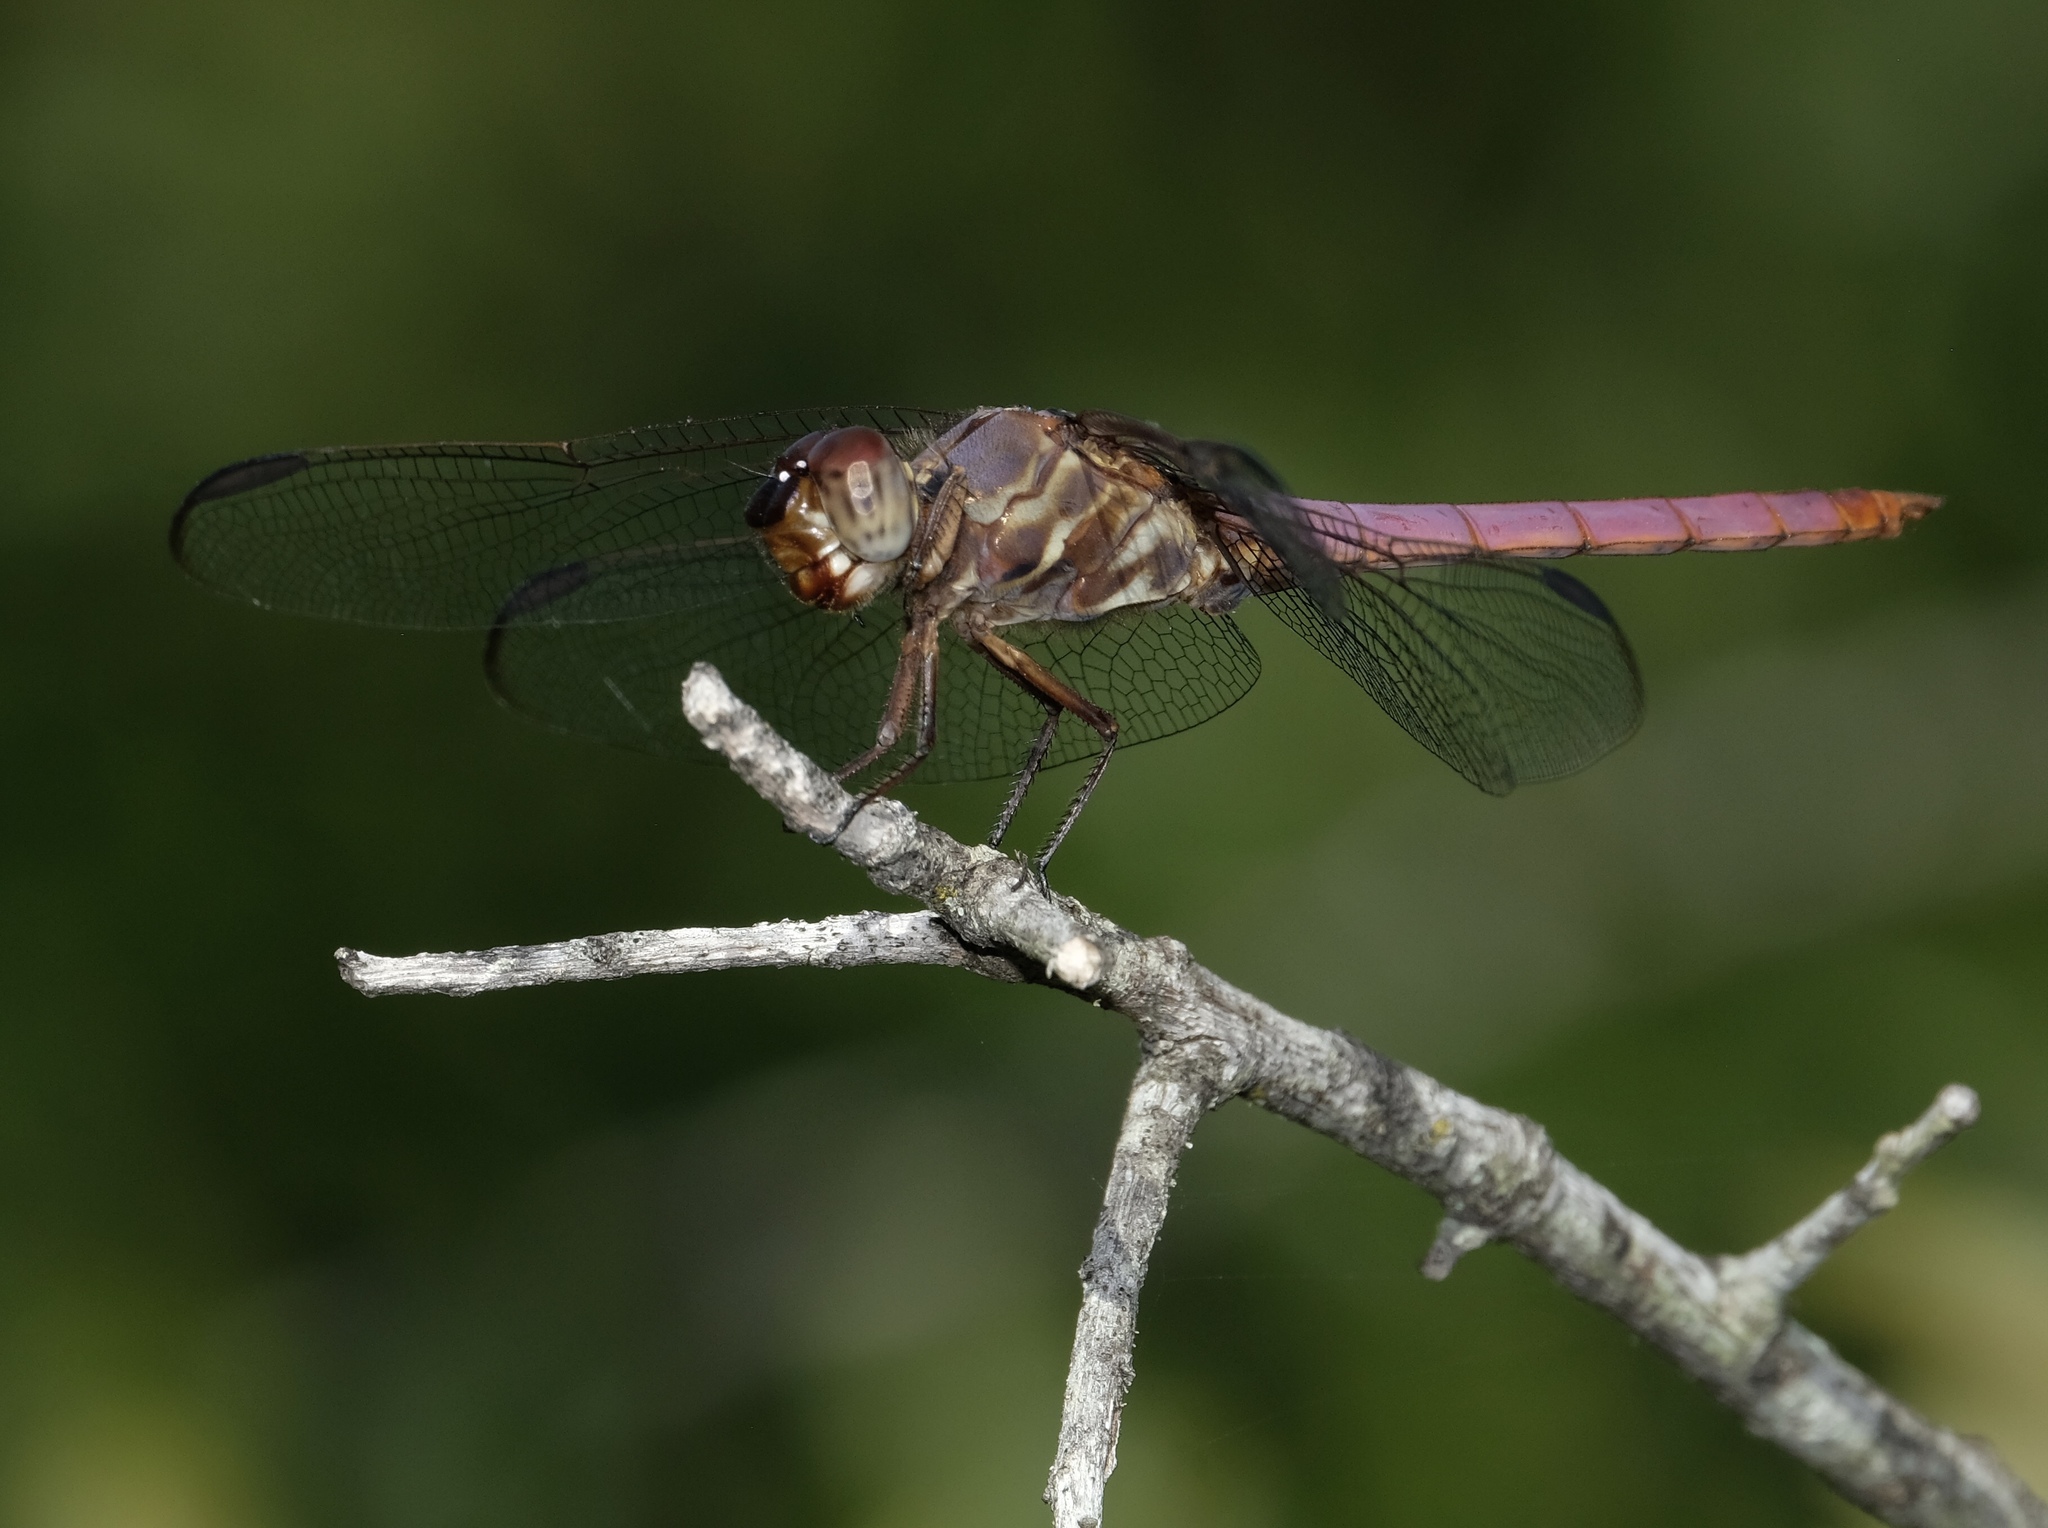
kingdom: Animalia
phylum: Arthropoda
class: Insecta
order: Odonata
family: Libellulidae
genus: Orthemis
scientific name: Orthemis ferruginea
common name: Roseate skimmer
